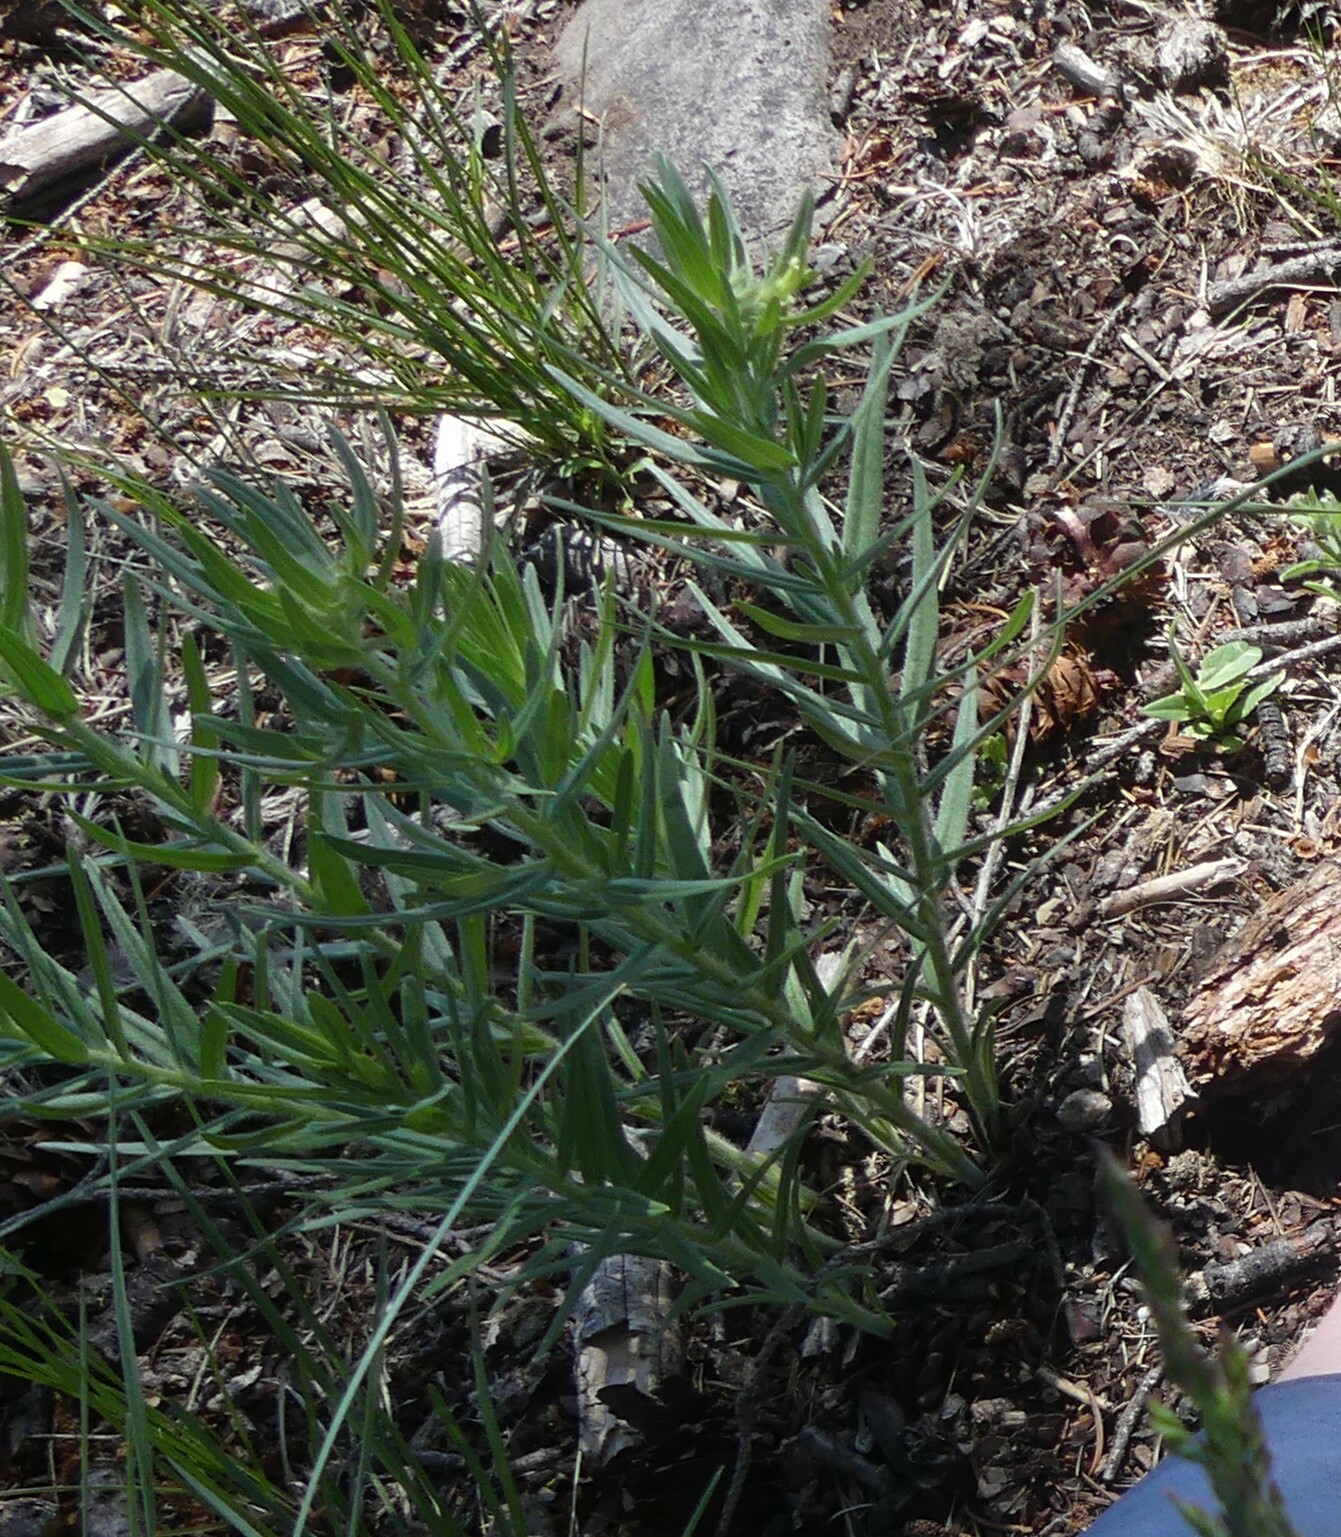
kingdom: Plantae
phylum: Tracheophyta
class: Magnoliopsida
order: Boraginales
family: Boraginaceae
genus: Lithospermum
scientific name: Lithospermum ruderale
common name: Western gromwell
